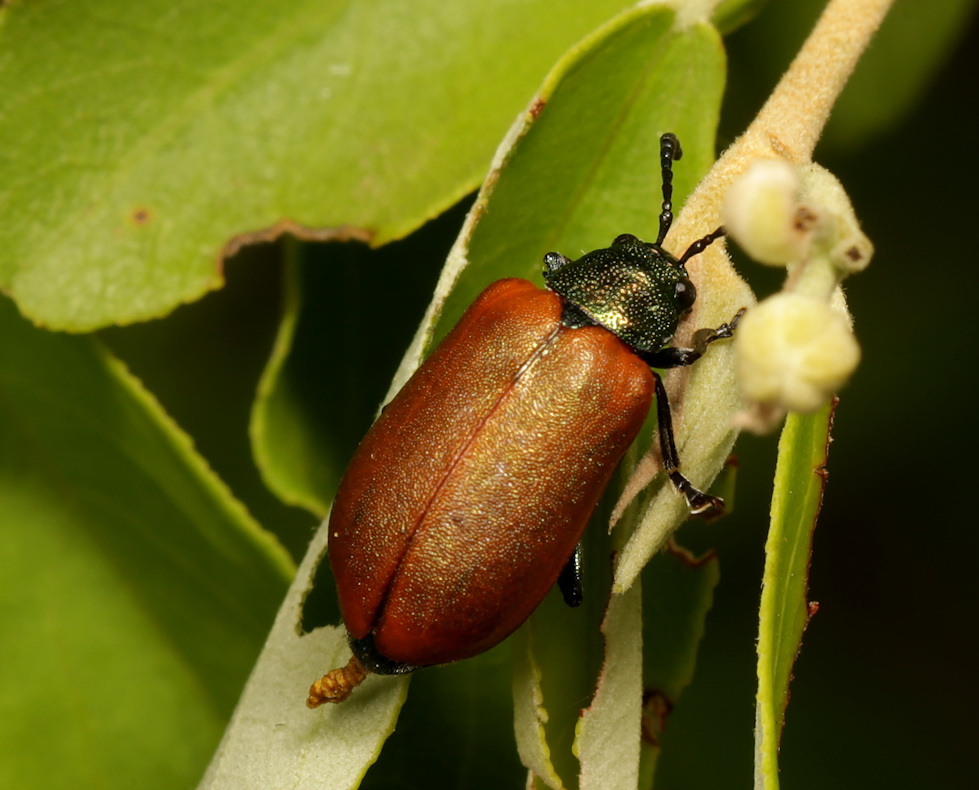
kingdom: Animalia
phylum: Arthropoda
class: Insecta
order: Coleoptera
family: Chrysomelidae
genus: Porphytoma
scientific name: Porphytoma
